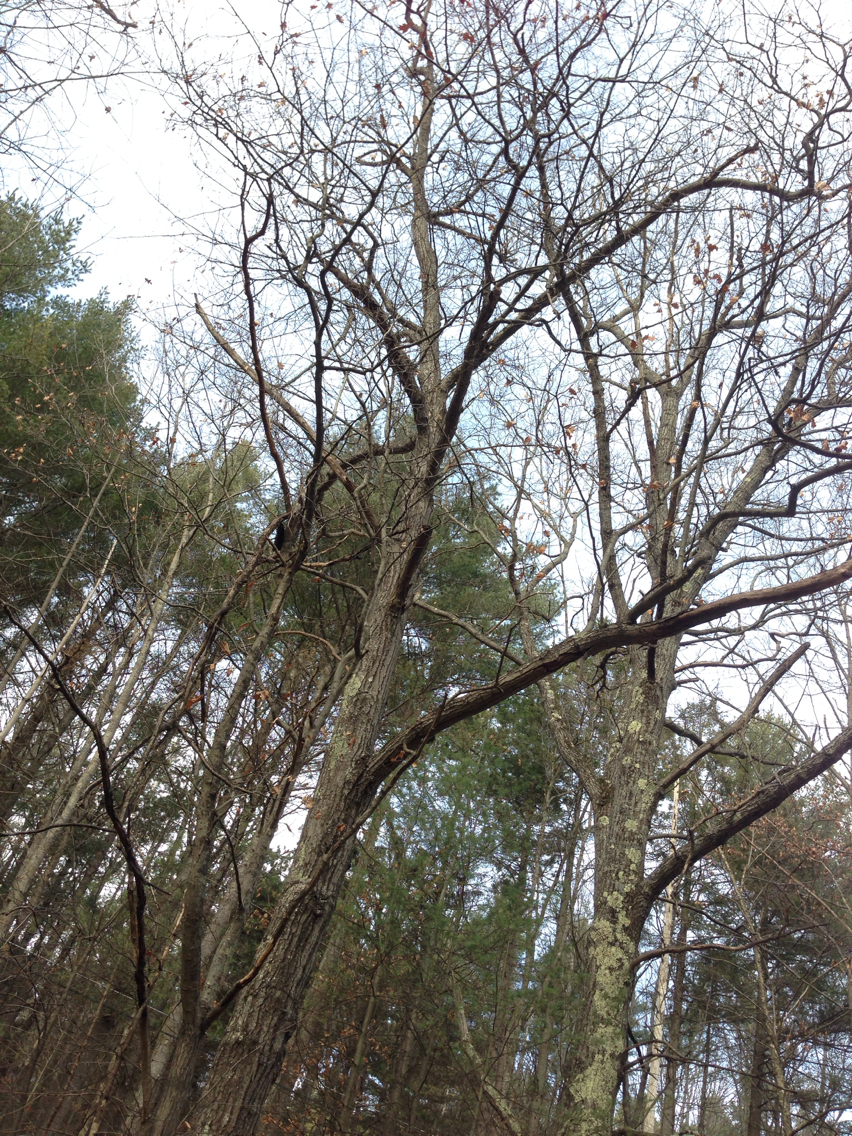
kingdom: Plantae
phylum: Tracheophyta
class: Magnoliopsida
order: Fagales
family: Fagaceae
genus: Quercus
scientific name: Quercus rubra
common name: Red oak
